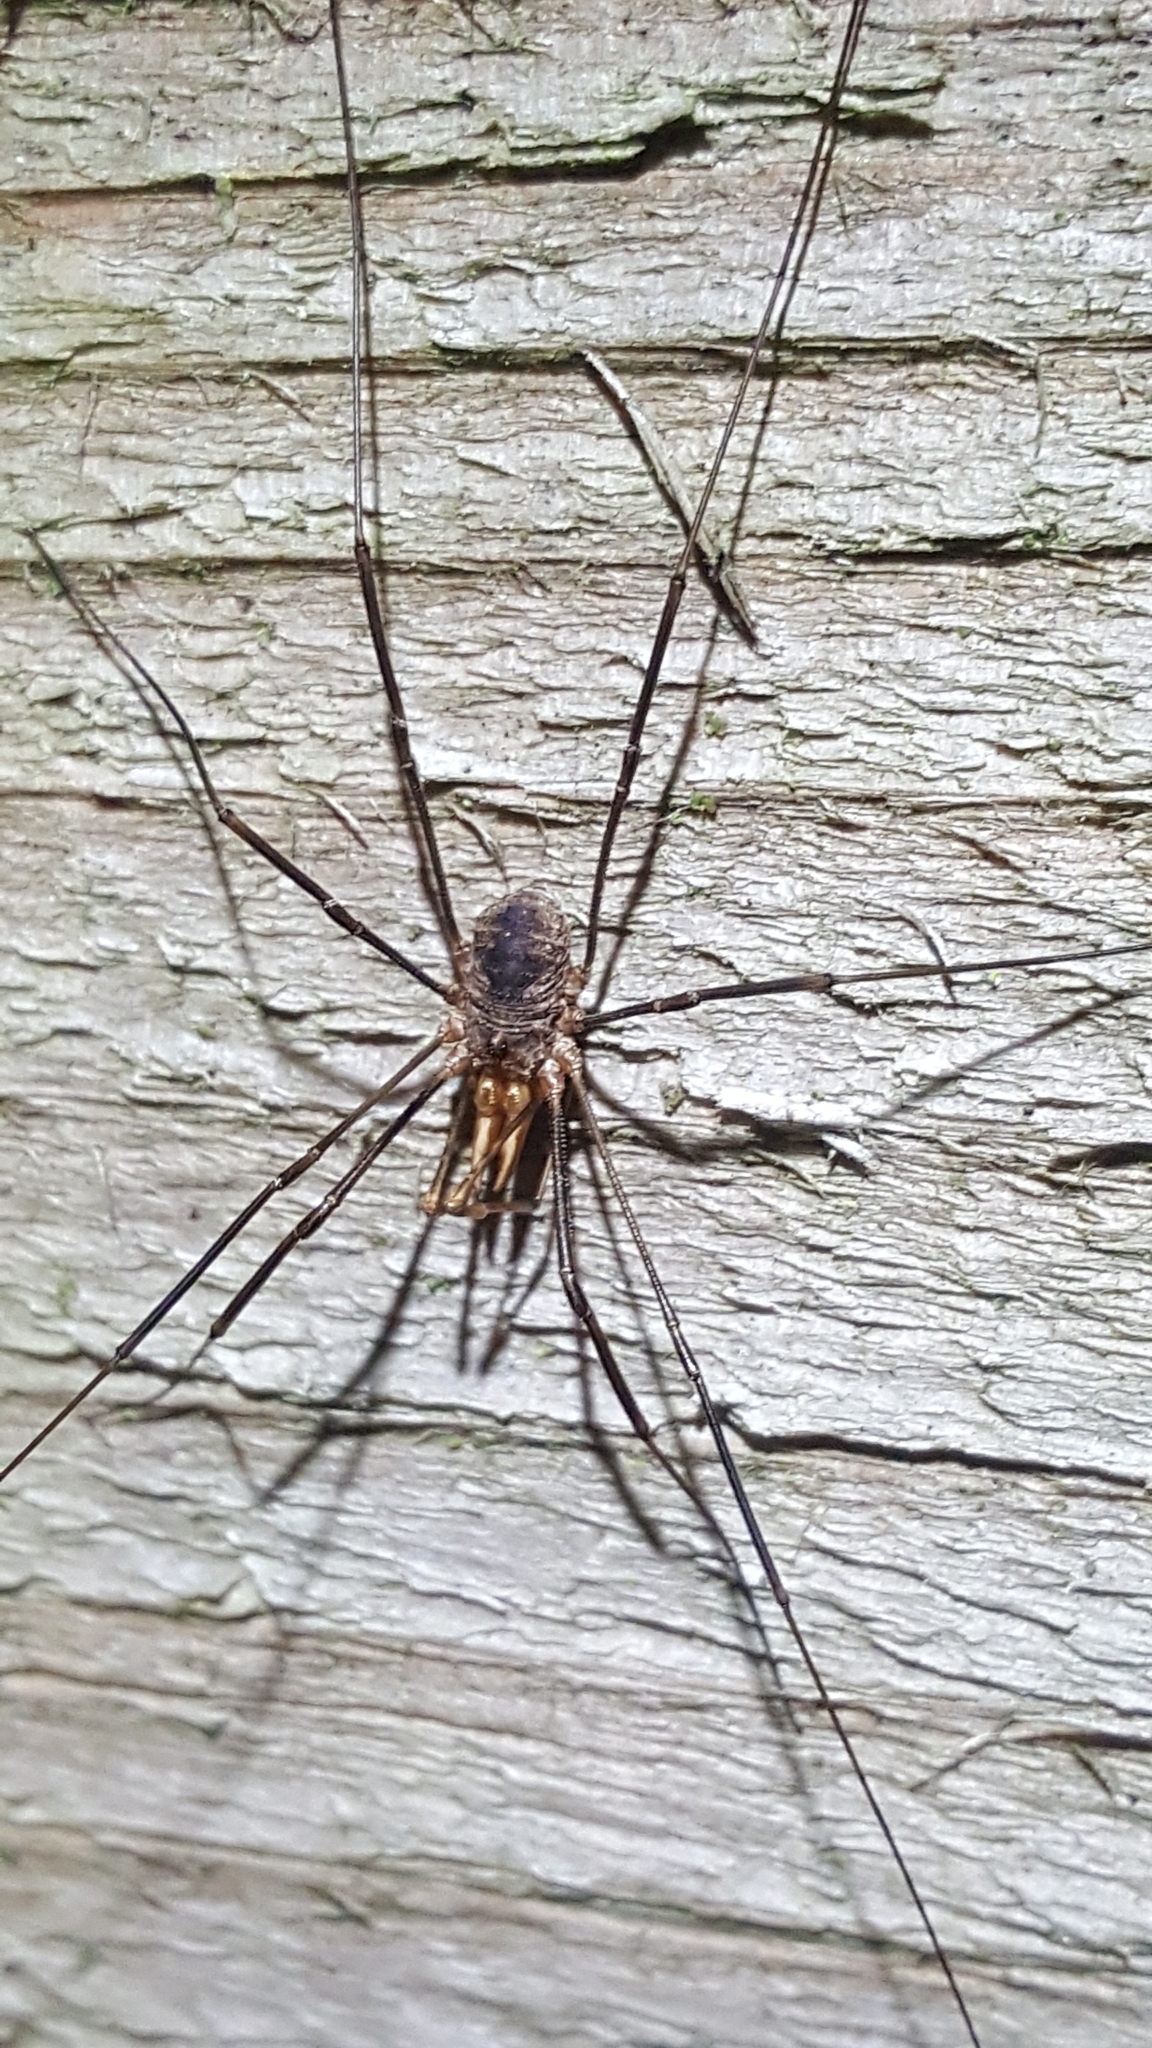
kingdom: Animalia
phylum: Arthropoda
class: Arachnida
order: Opiliones
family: Phalangiidae
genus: Phalangium
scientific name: Phalangium opilio
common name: Daddy longleg
